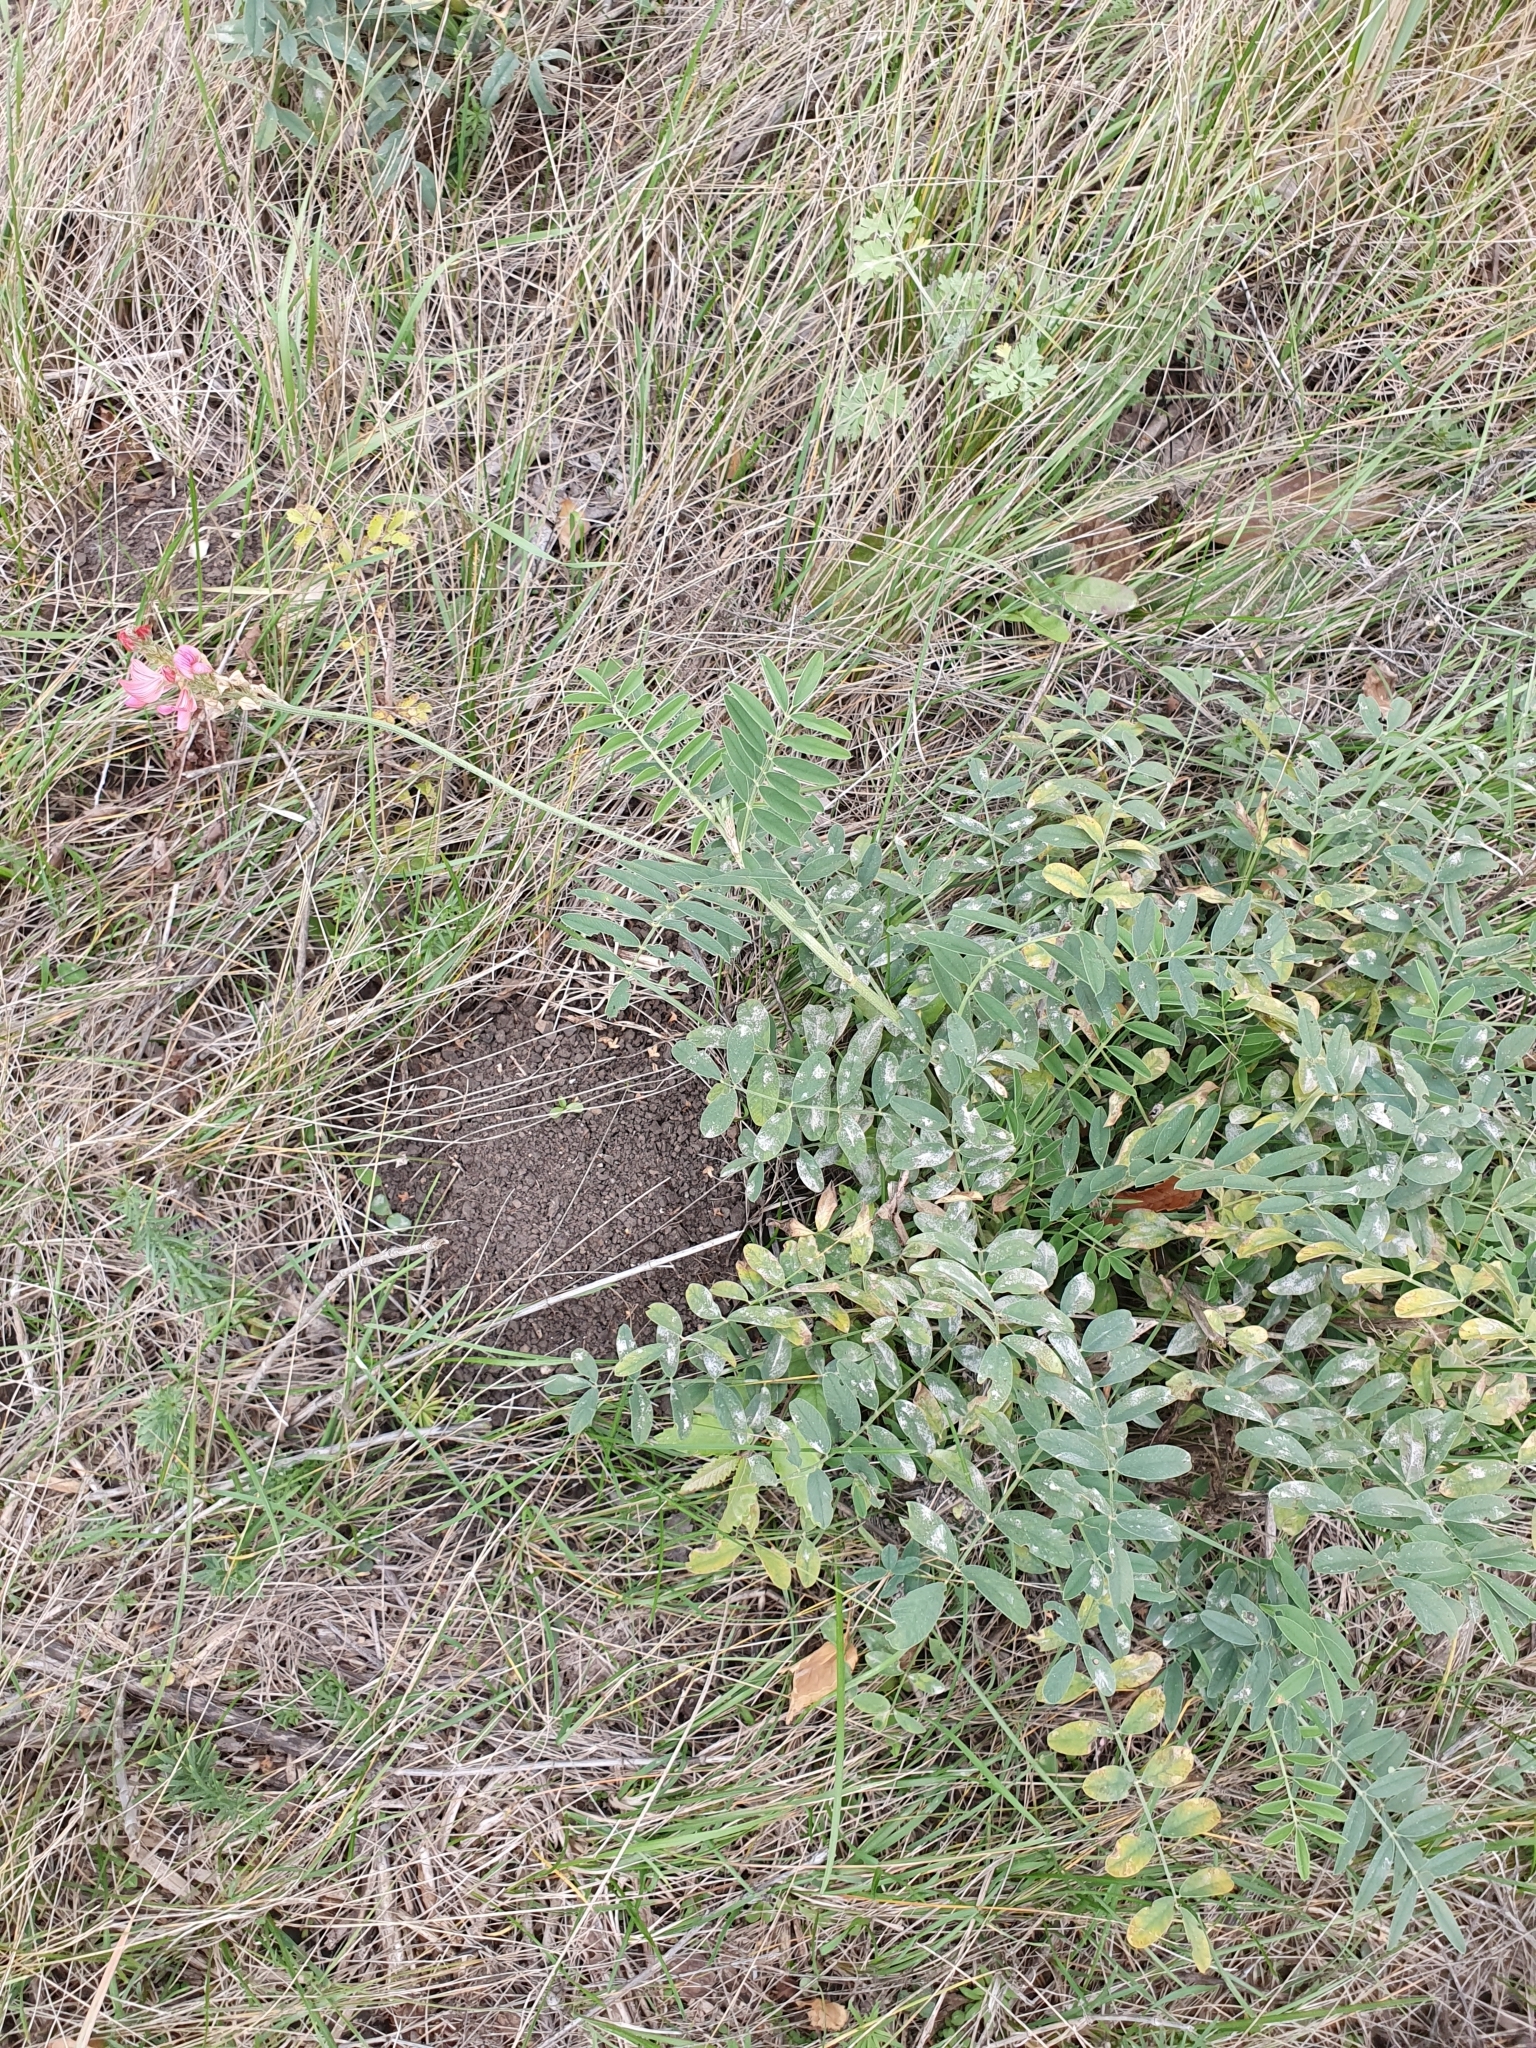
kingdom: Plantae
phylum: Tracheophyta
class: Magnoliopsida
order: Fabales
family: Fabaceae
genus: Onobrychis
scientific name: Onobrychis arenaria
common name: Sand esparcet
